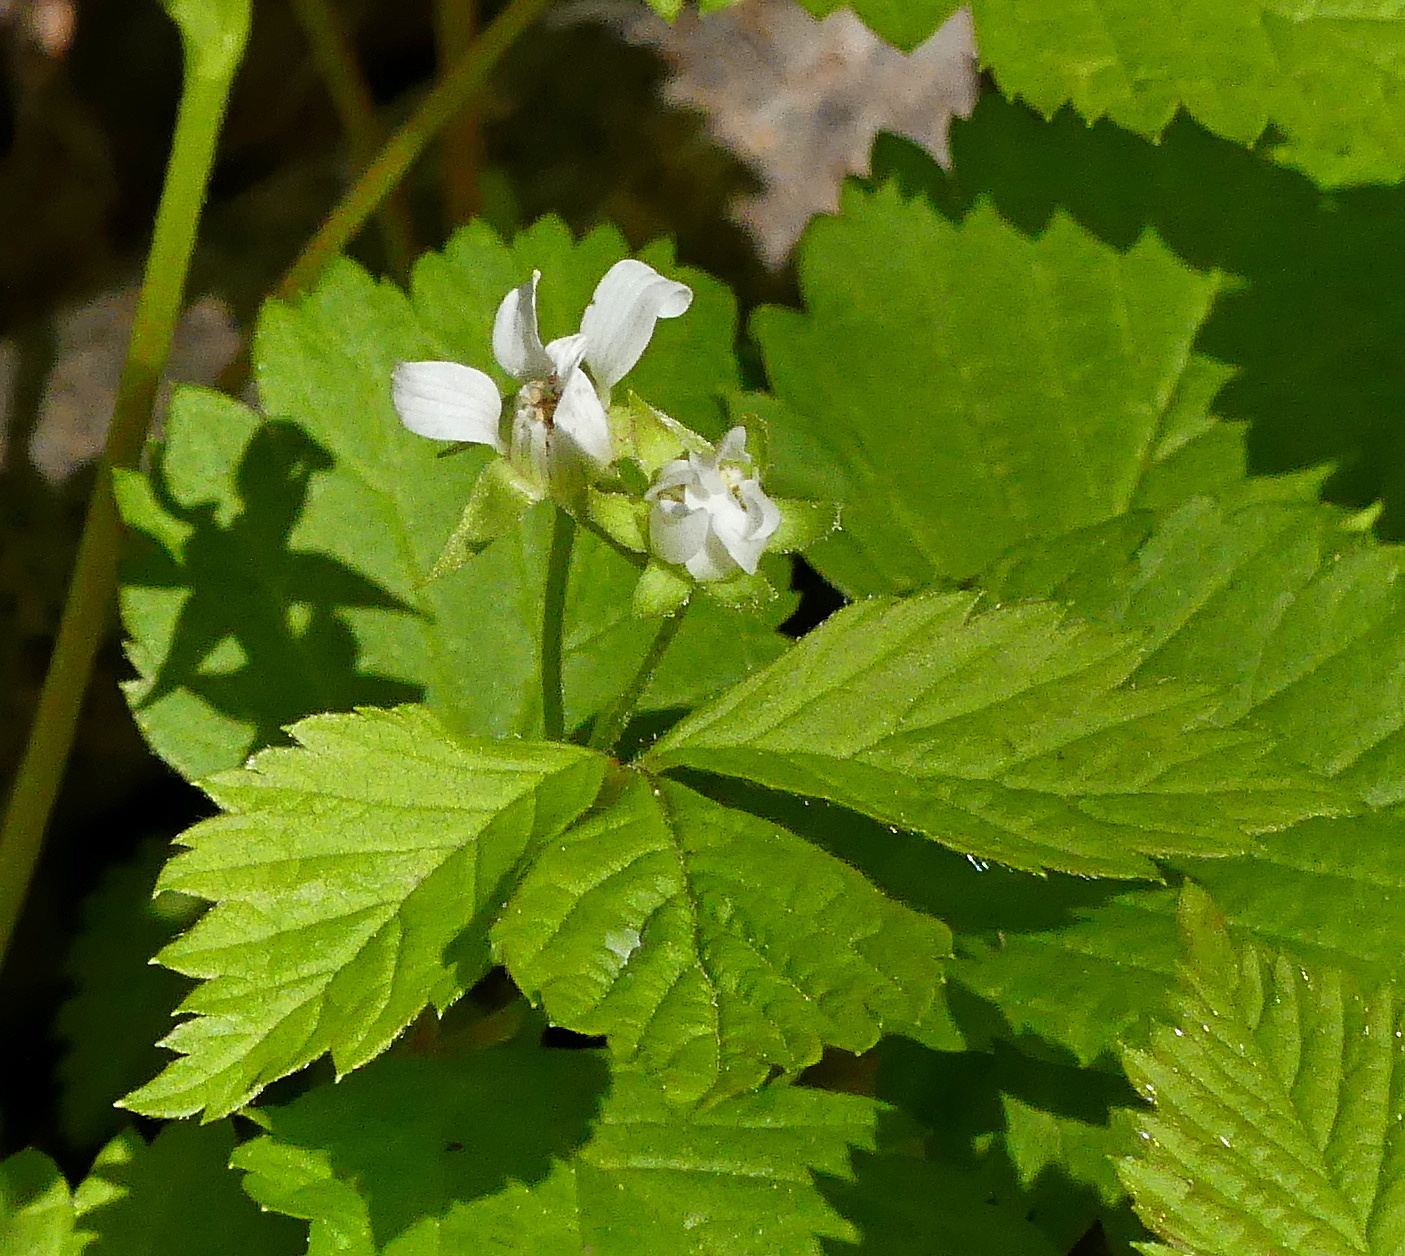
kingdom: Plantae
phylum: Tracheophyta
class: Magnoliopsida
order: Rosales
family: Rosaceae
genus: Rubus
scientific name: Rubus pubescens
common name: Dwarf raspberry
